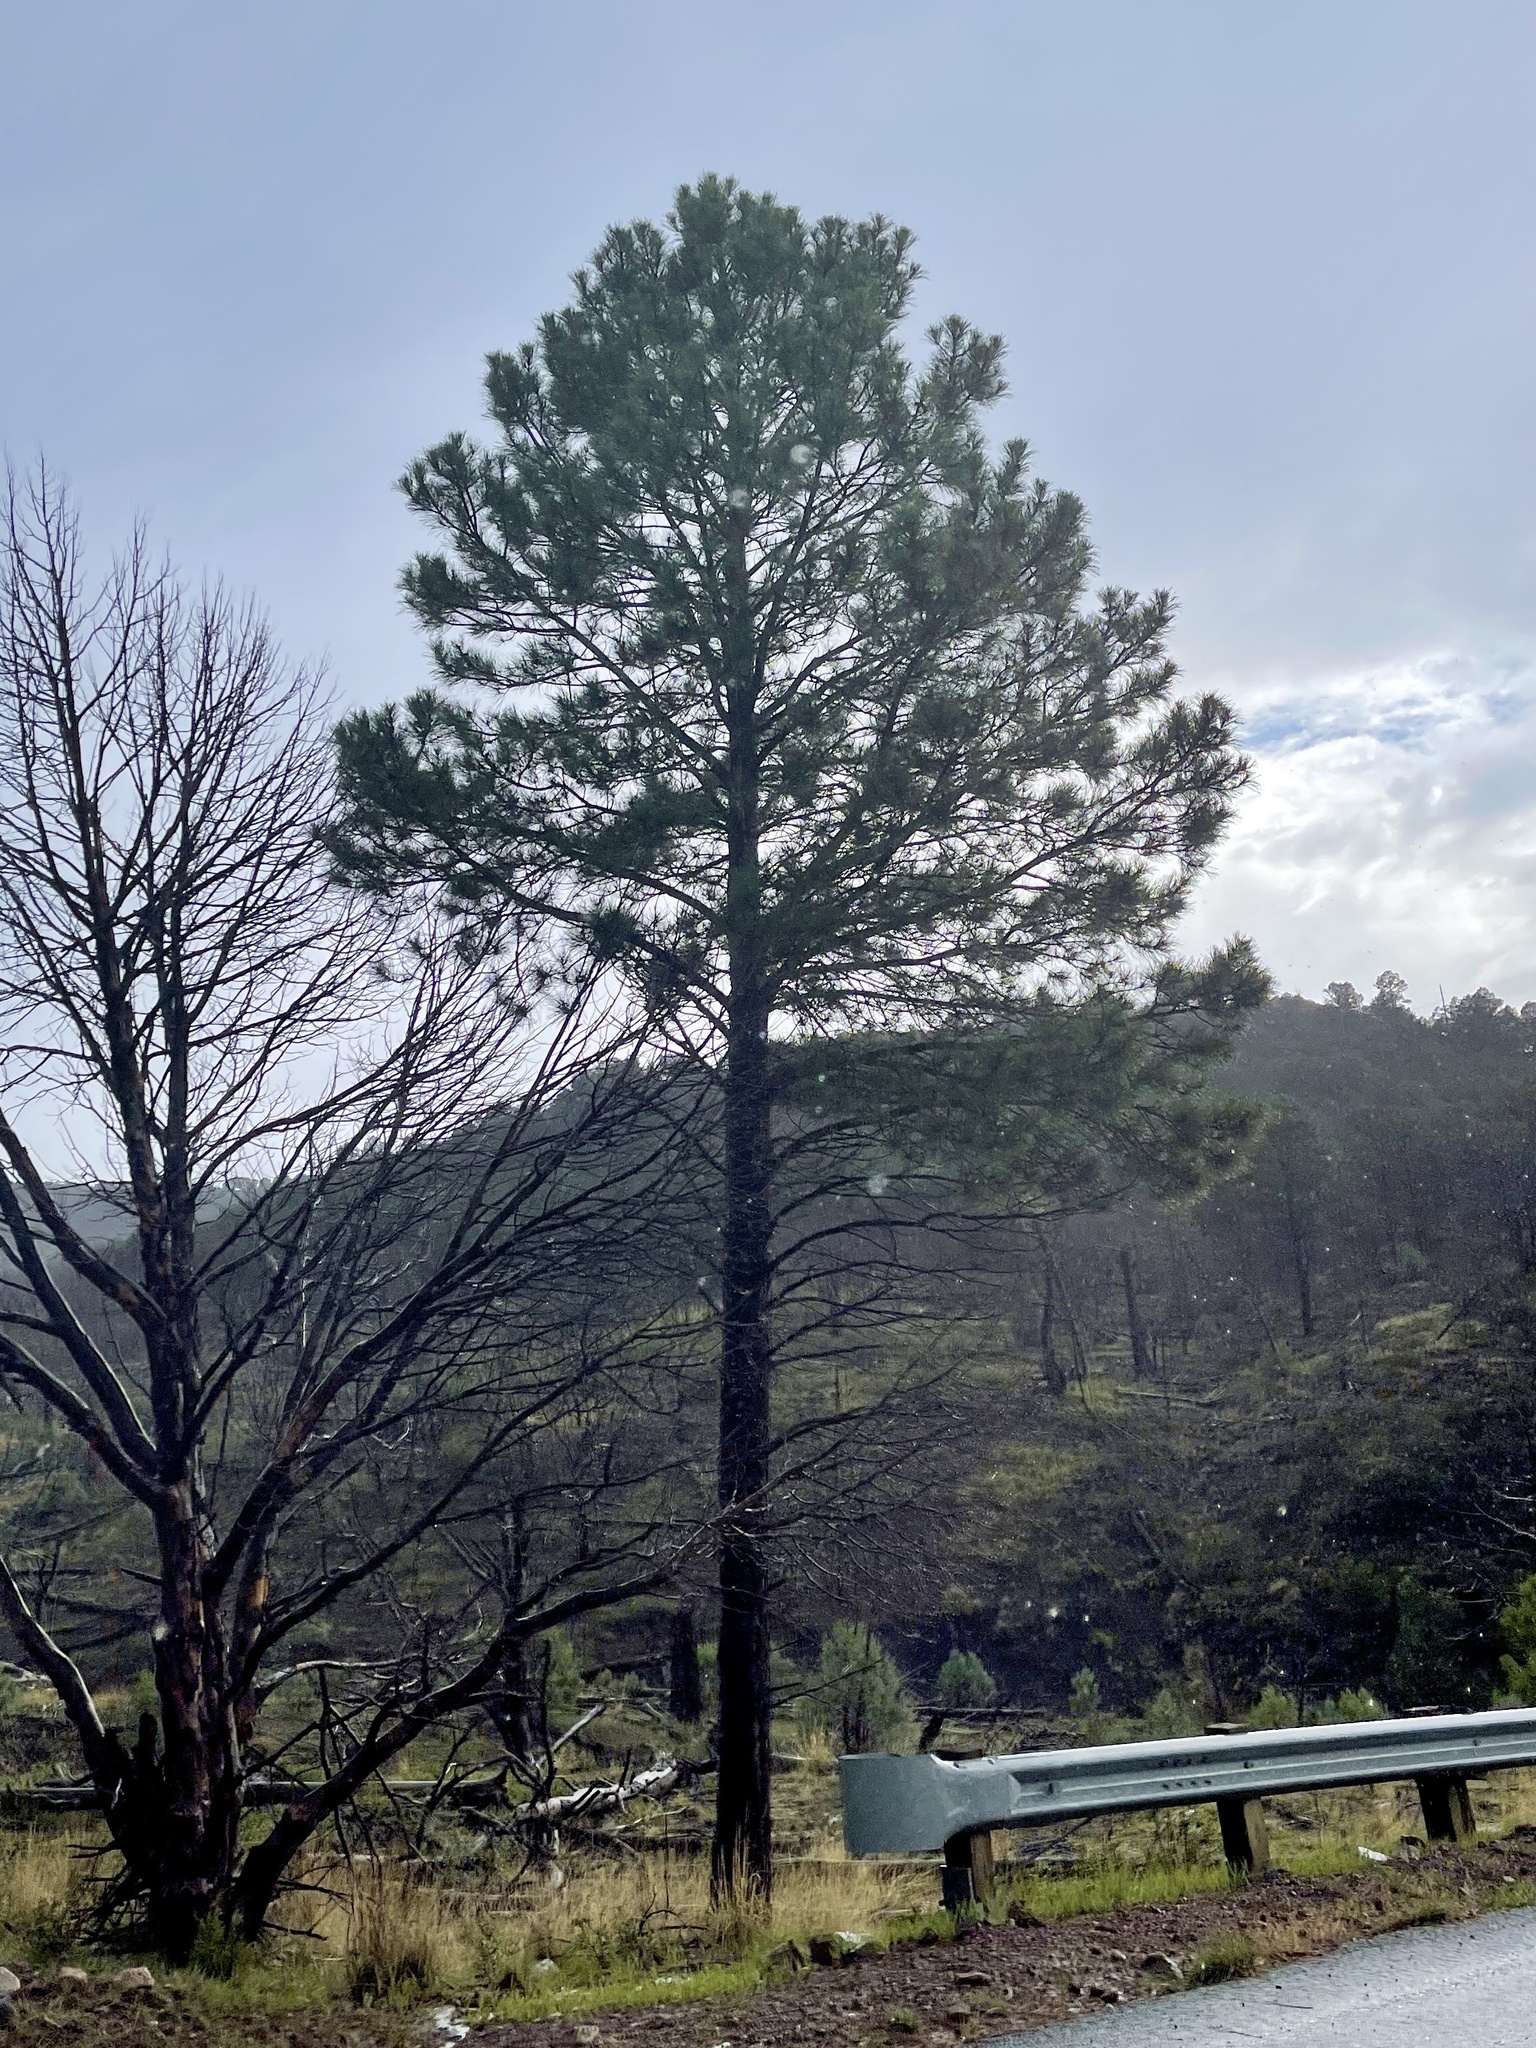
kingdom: Plantae
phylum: Tracheophyta
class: Pinopsida
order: Pinales
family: Pinaceae
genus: Pinus
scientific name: Pinus ponderosa
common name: Western yellow-pine
